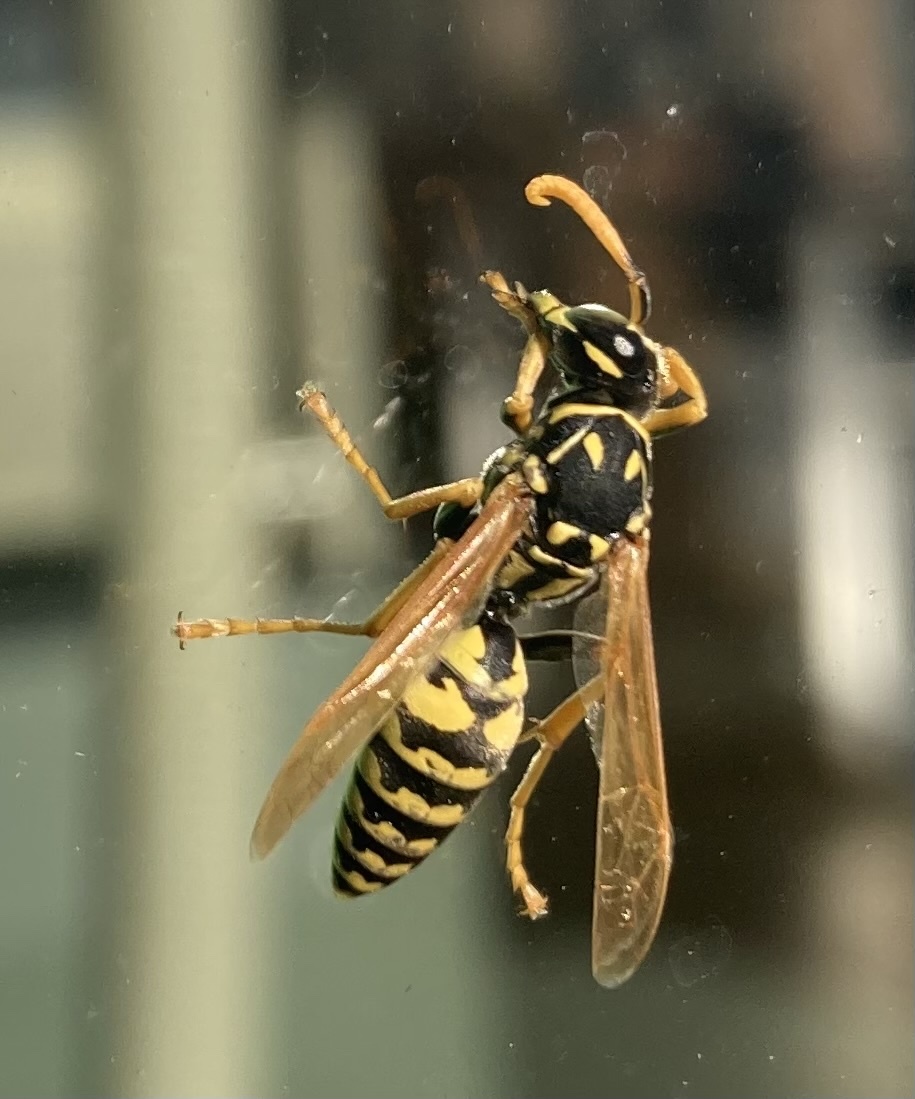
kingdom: Animalia
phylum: Arthropoda
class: Insecta
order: Hymenoptera
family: Eumenidae
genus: Polistes
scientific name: Polistes dominula
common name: Paper wasp
